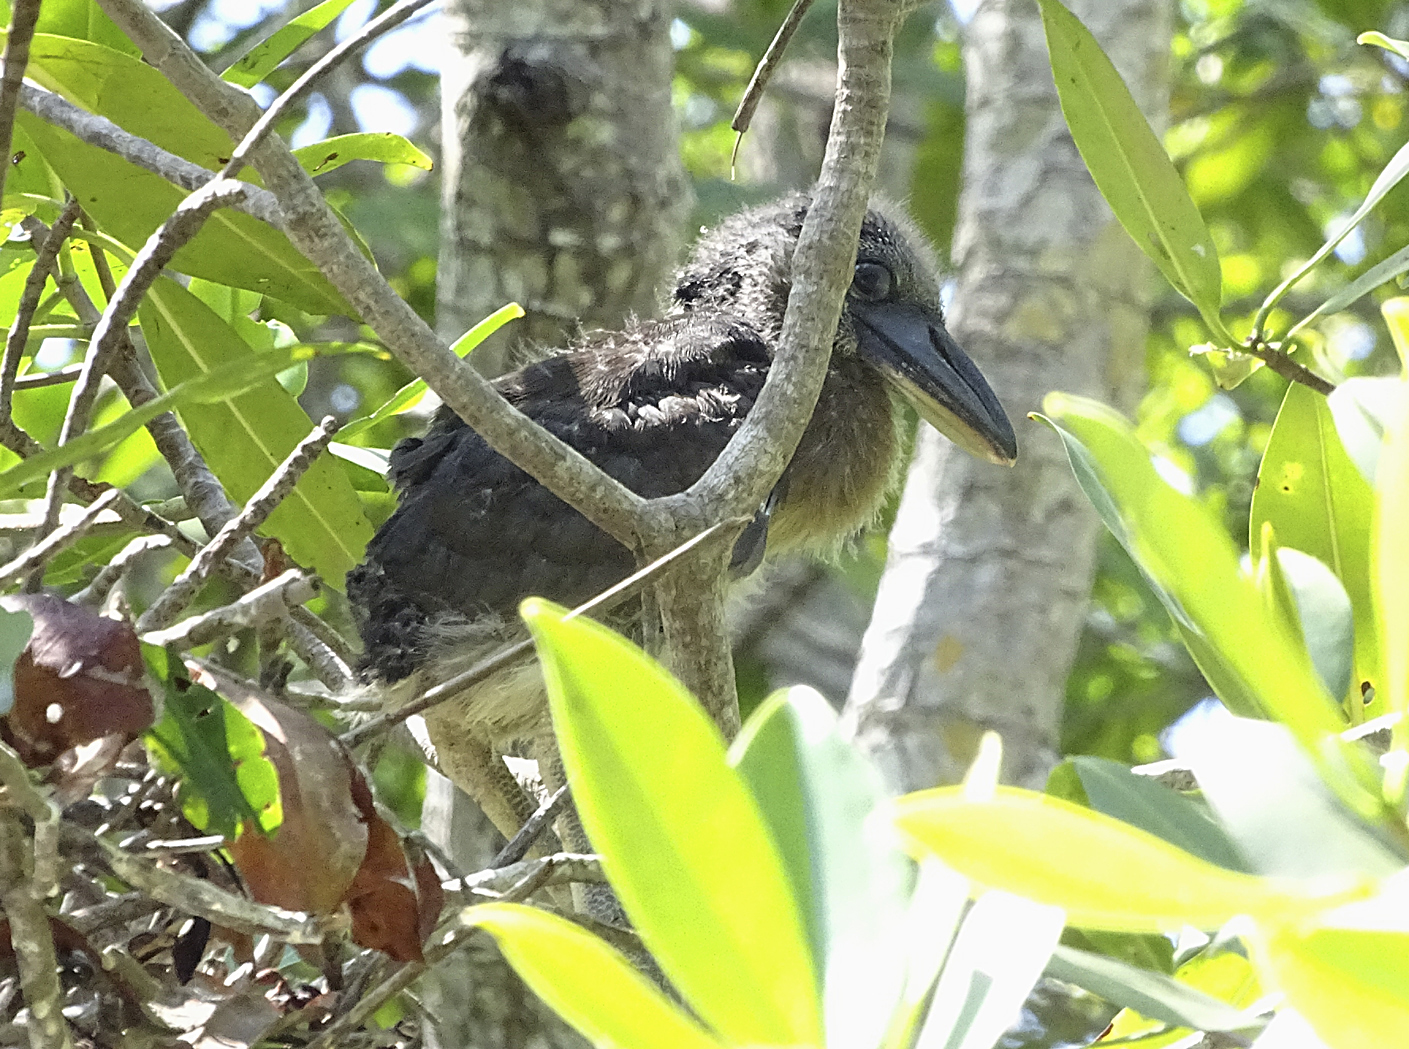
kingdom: Animalia
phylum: Chordata
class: Aves
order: Pelecaniformes
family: Ardeidae
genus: Cochlearius
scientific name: Cochlearius cochlearius
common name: Boat-billed heron
